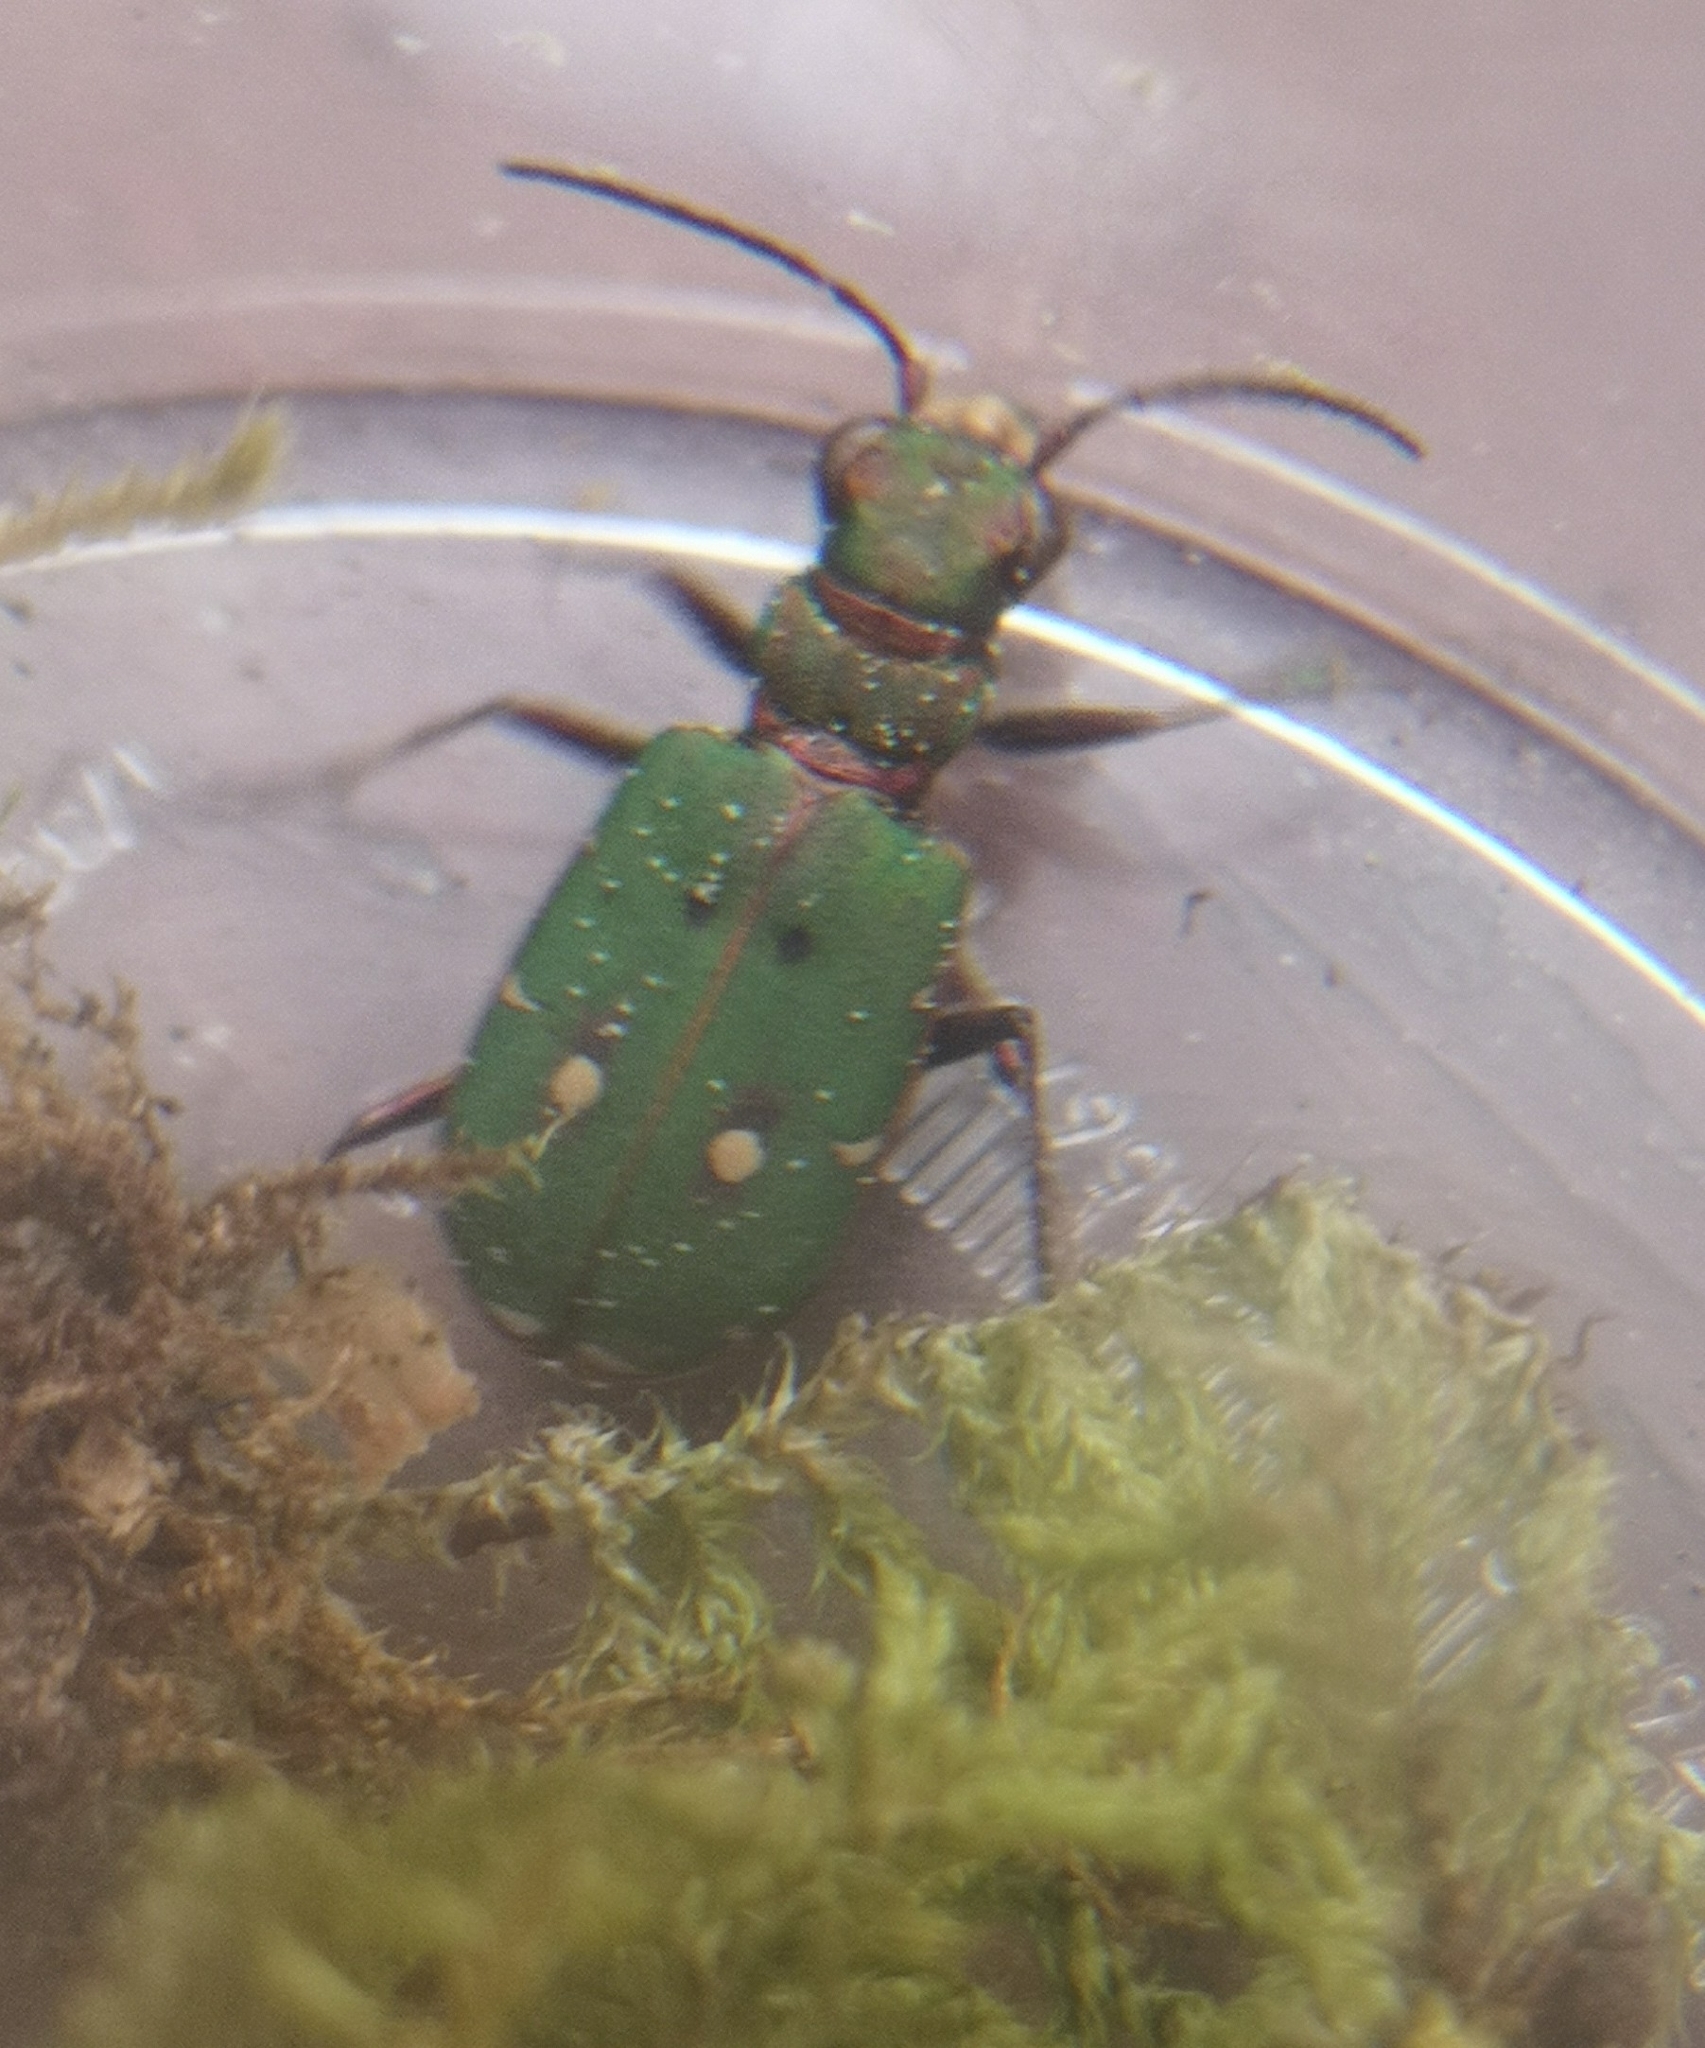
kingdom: Animalia
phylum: Arthropoda
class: Insecta
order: Coleoptera
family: Carabidae
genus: Cicindela
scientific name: Cicindela campestris
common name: Common tiger beetle
